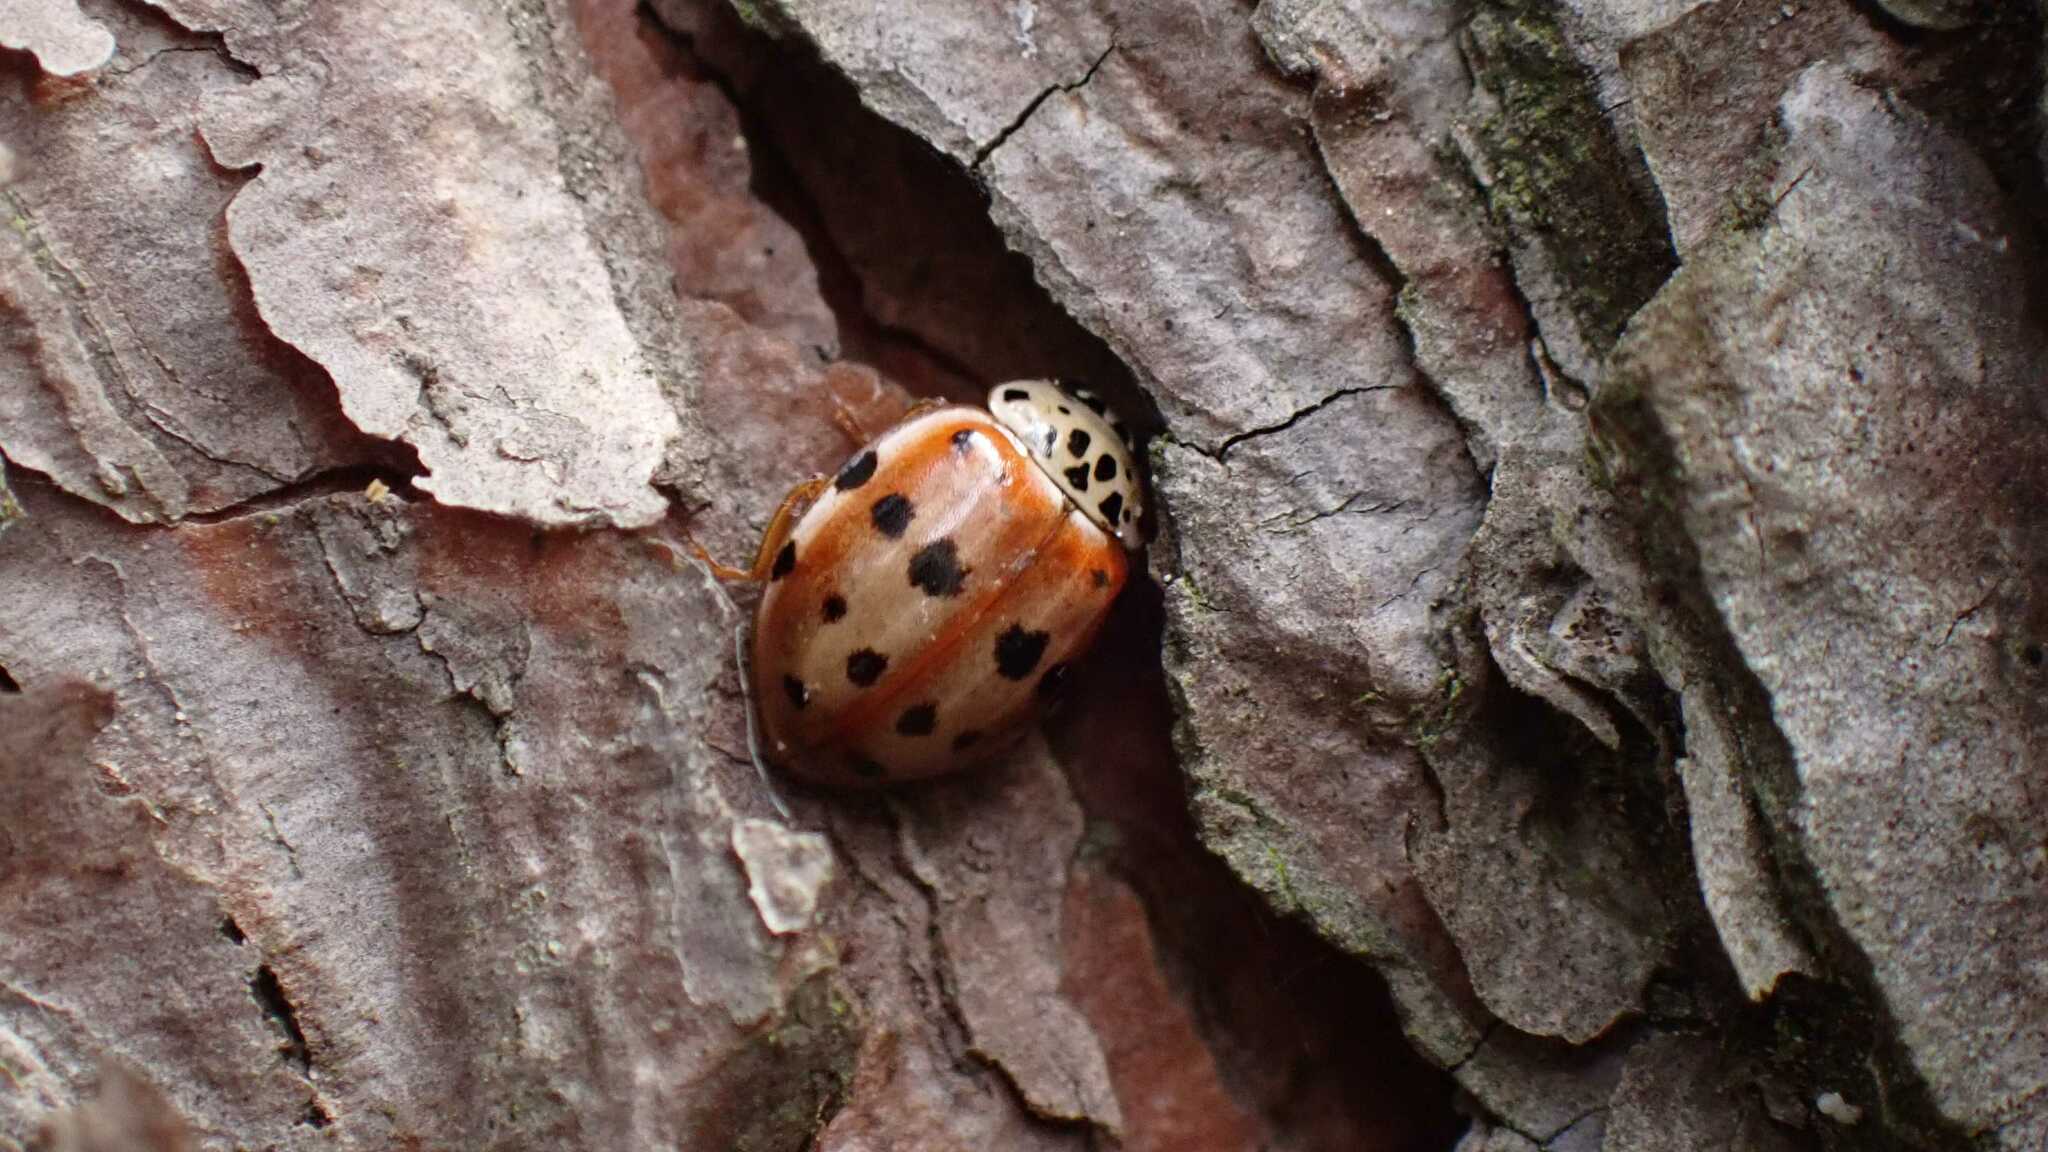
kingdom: Animalia
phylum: Arthropoda
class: Insecta
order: Coleoptera
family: Coccinellidae
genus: Harmonia
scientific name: Harmonia quadripunctata
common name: Cream-streaked ladybird
